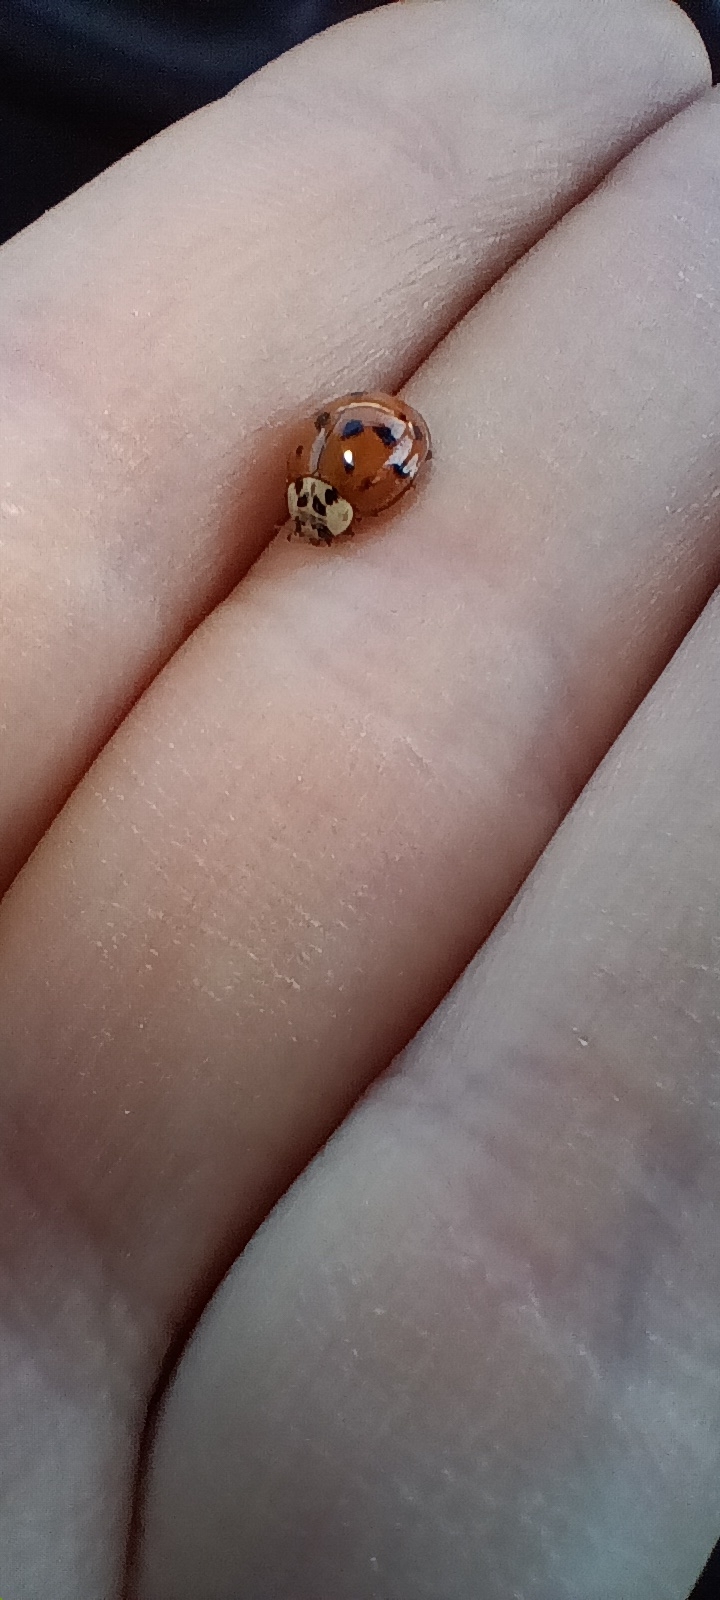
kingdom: Animalia
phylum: Arthropoda
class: Insecta
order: Coleoptera
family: Coccinellidae
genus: Harmonia
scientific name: Harmonia axyridis
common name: Harlequin ladybird
